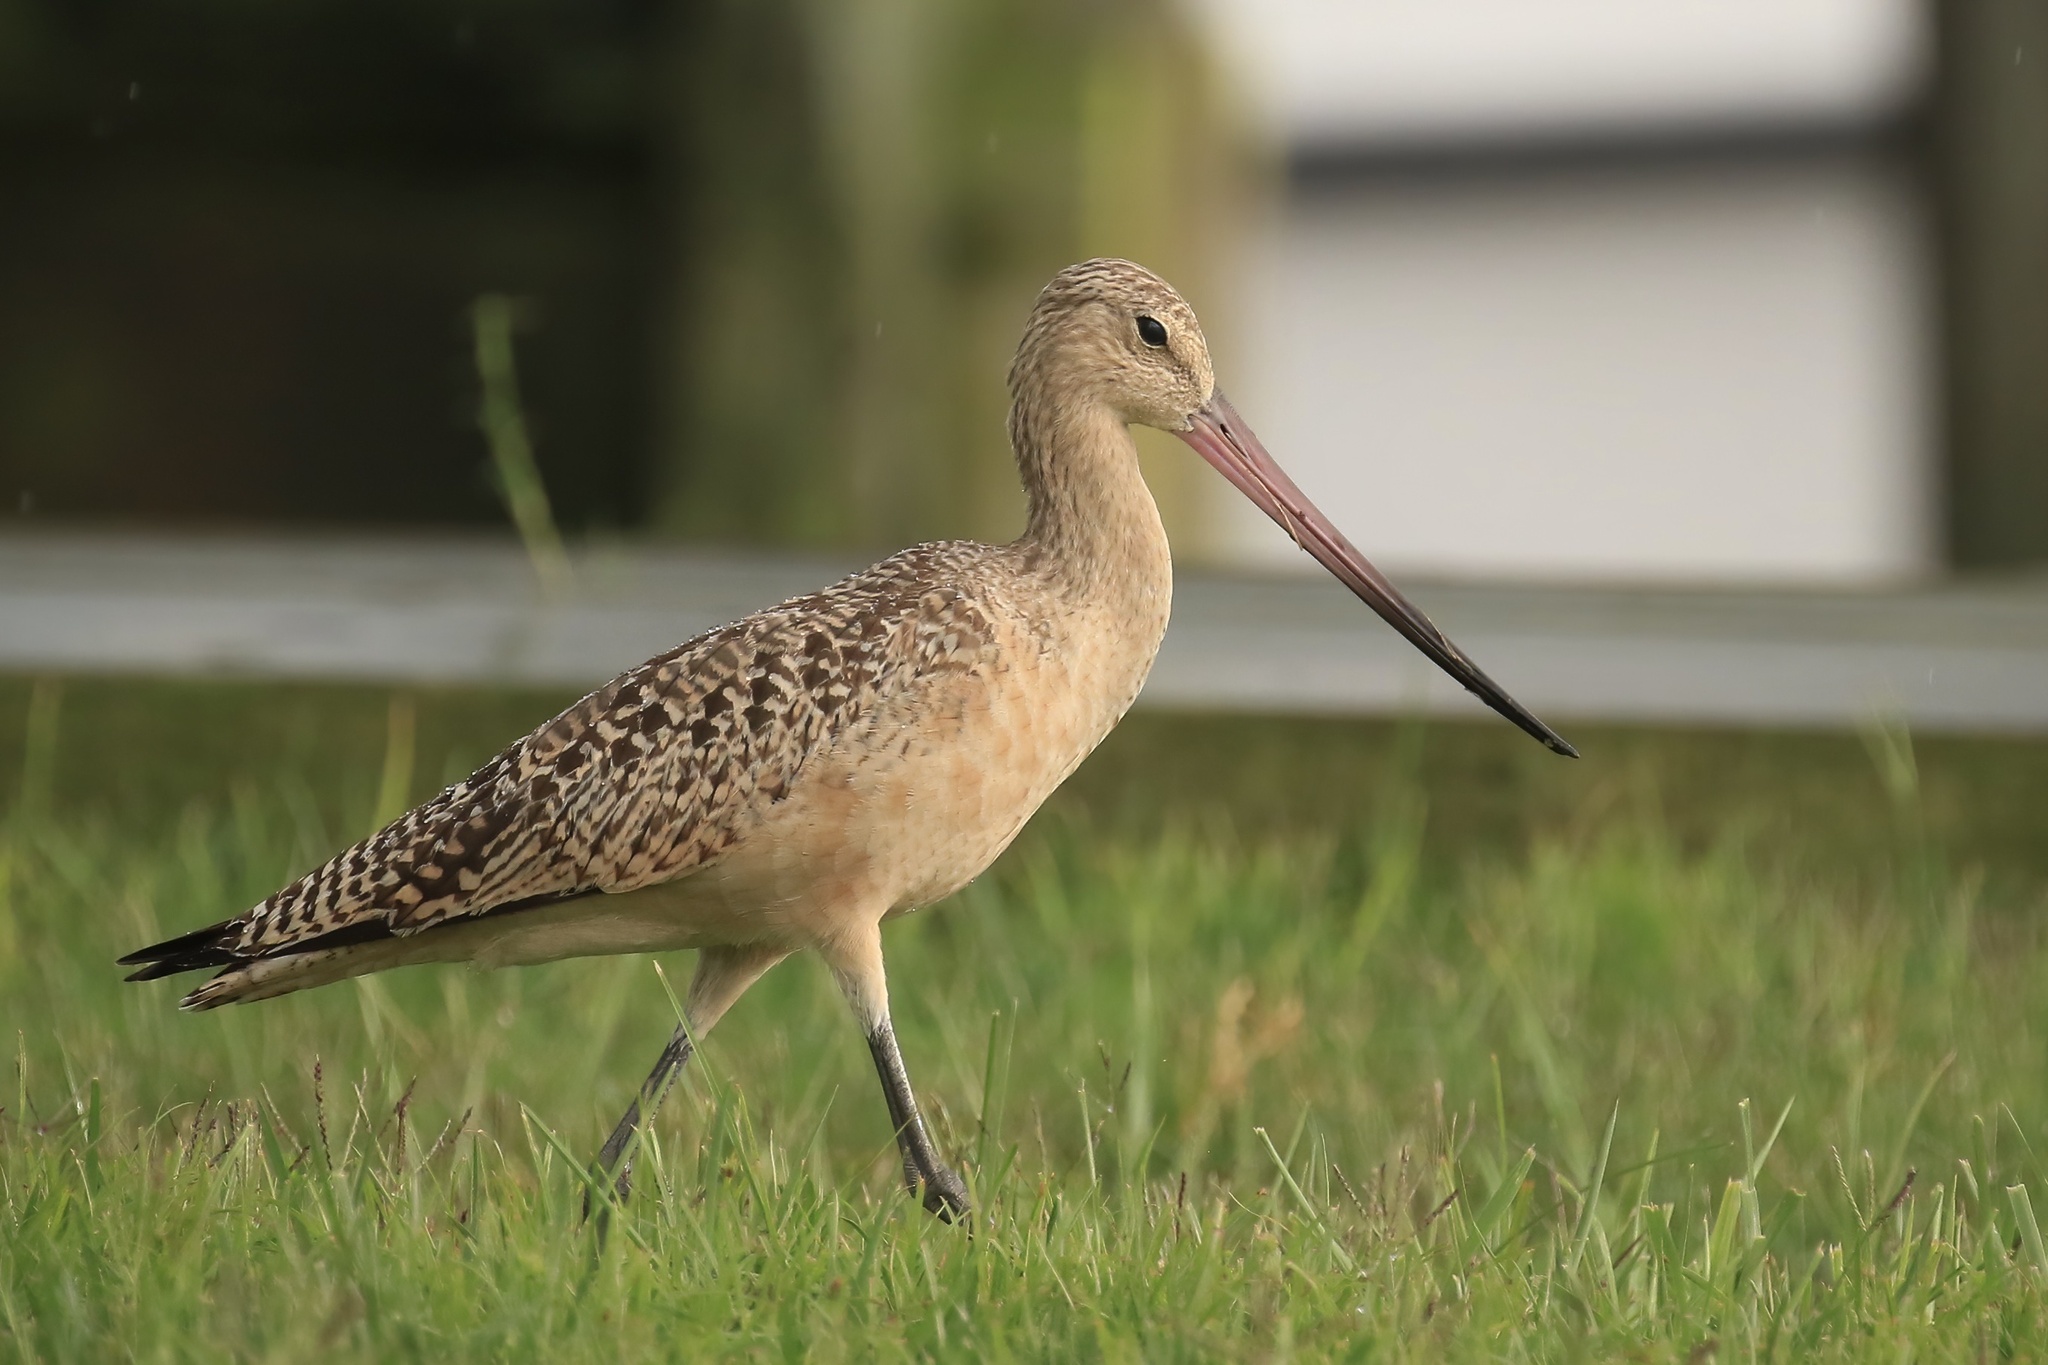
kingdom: Animalia
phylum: Chordata
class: Aves
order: Charadriiformes
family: Scolopacidae
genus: Limosa
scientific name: Limosa fedoa
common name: Marbled godwit
